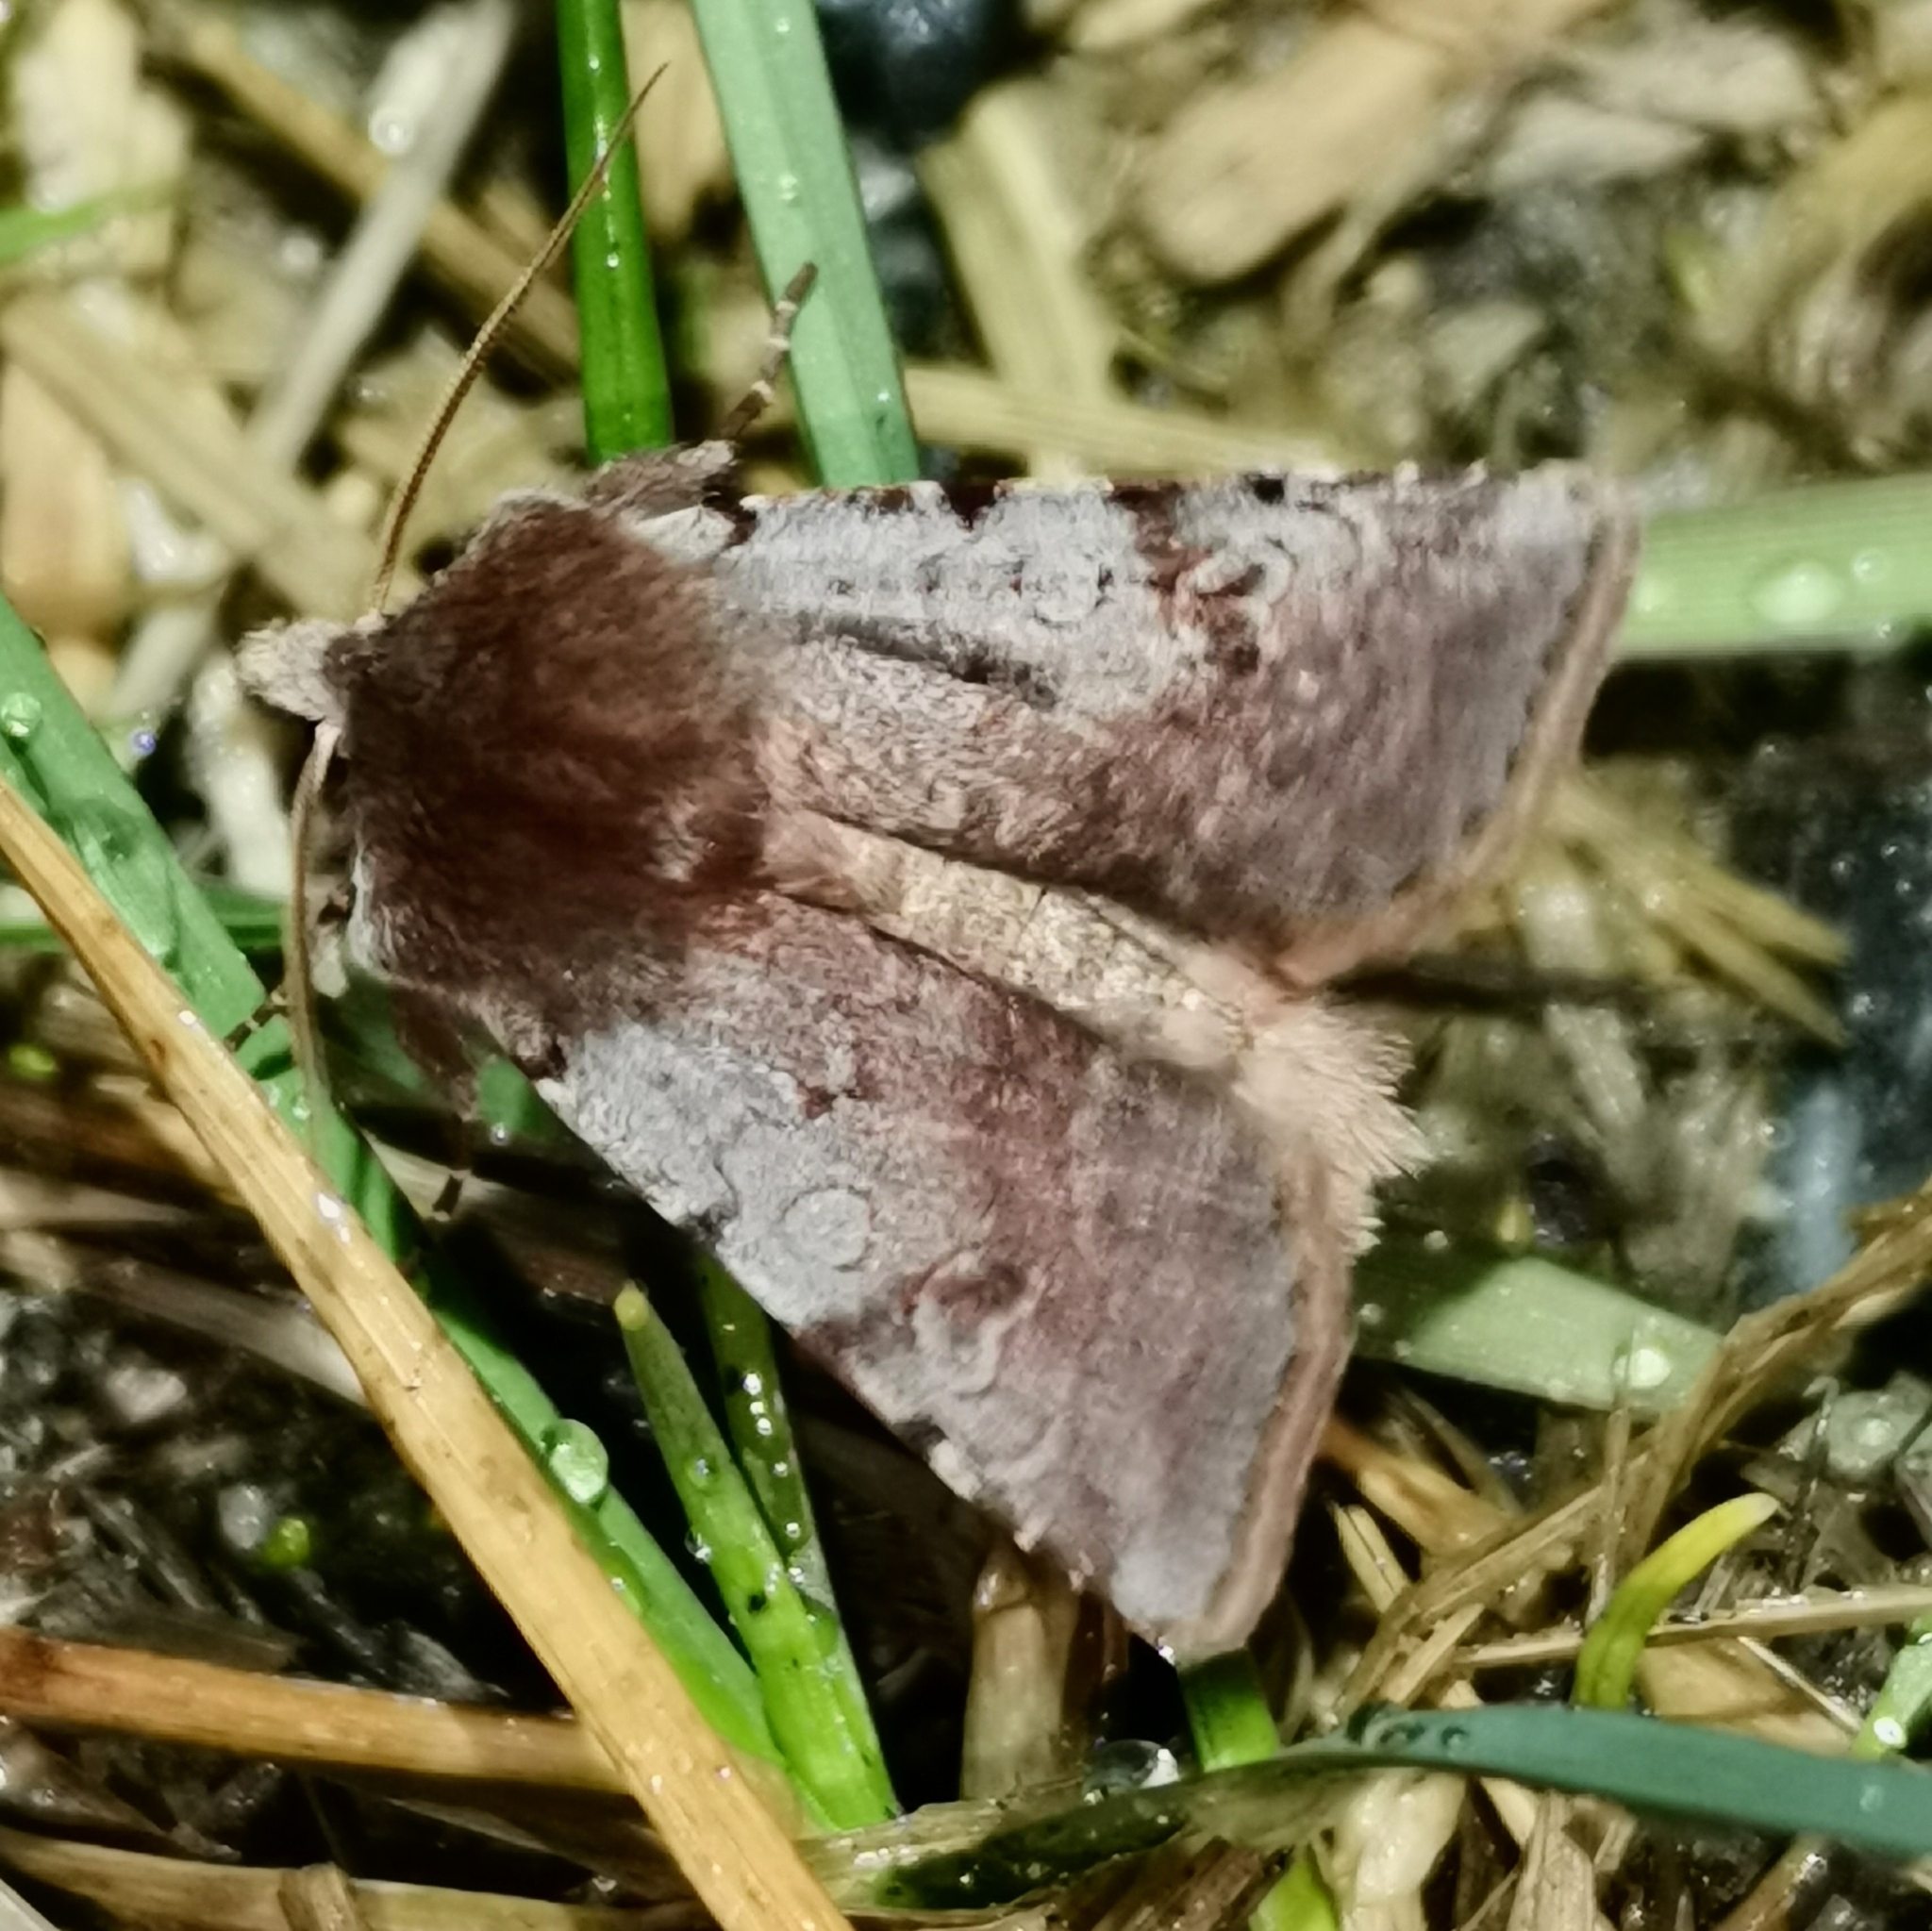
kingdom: Animalia
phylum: Arthropoda
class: Insecta
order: Lepidoptera
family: Noctuidae
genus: Cerastis
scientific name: Cerastis rubricosa
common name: Red chestnut
